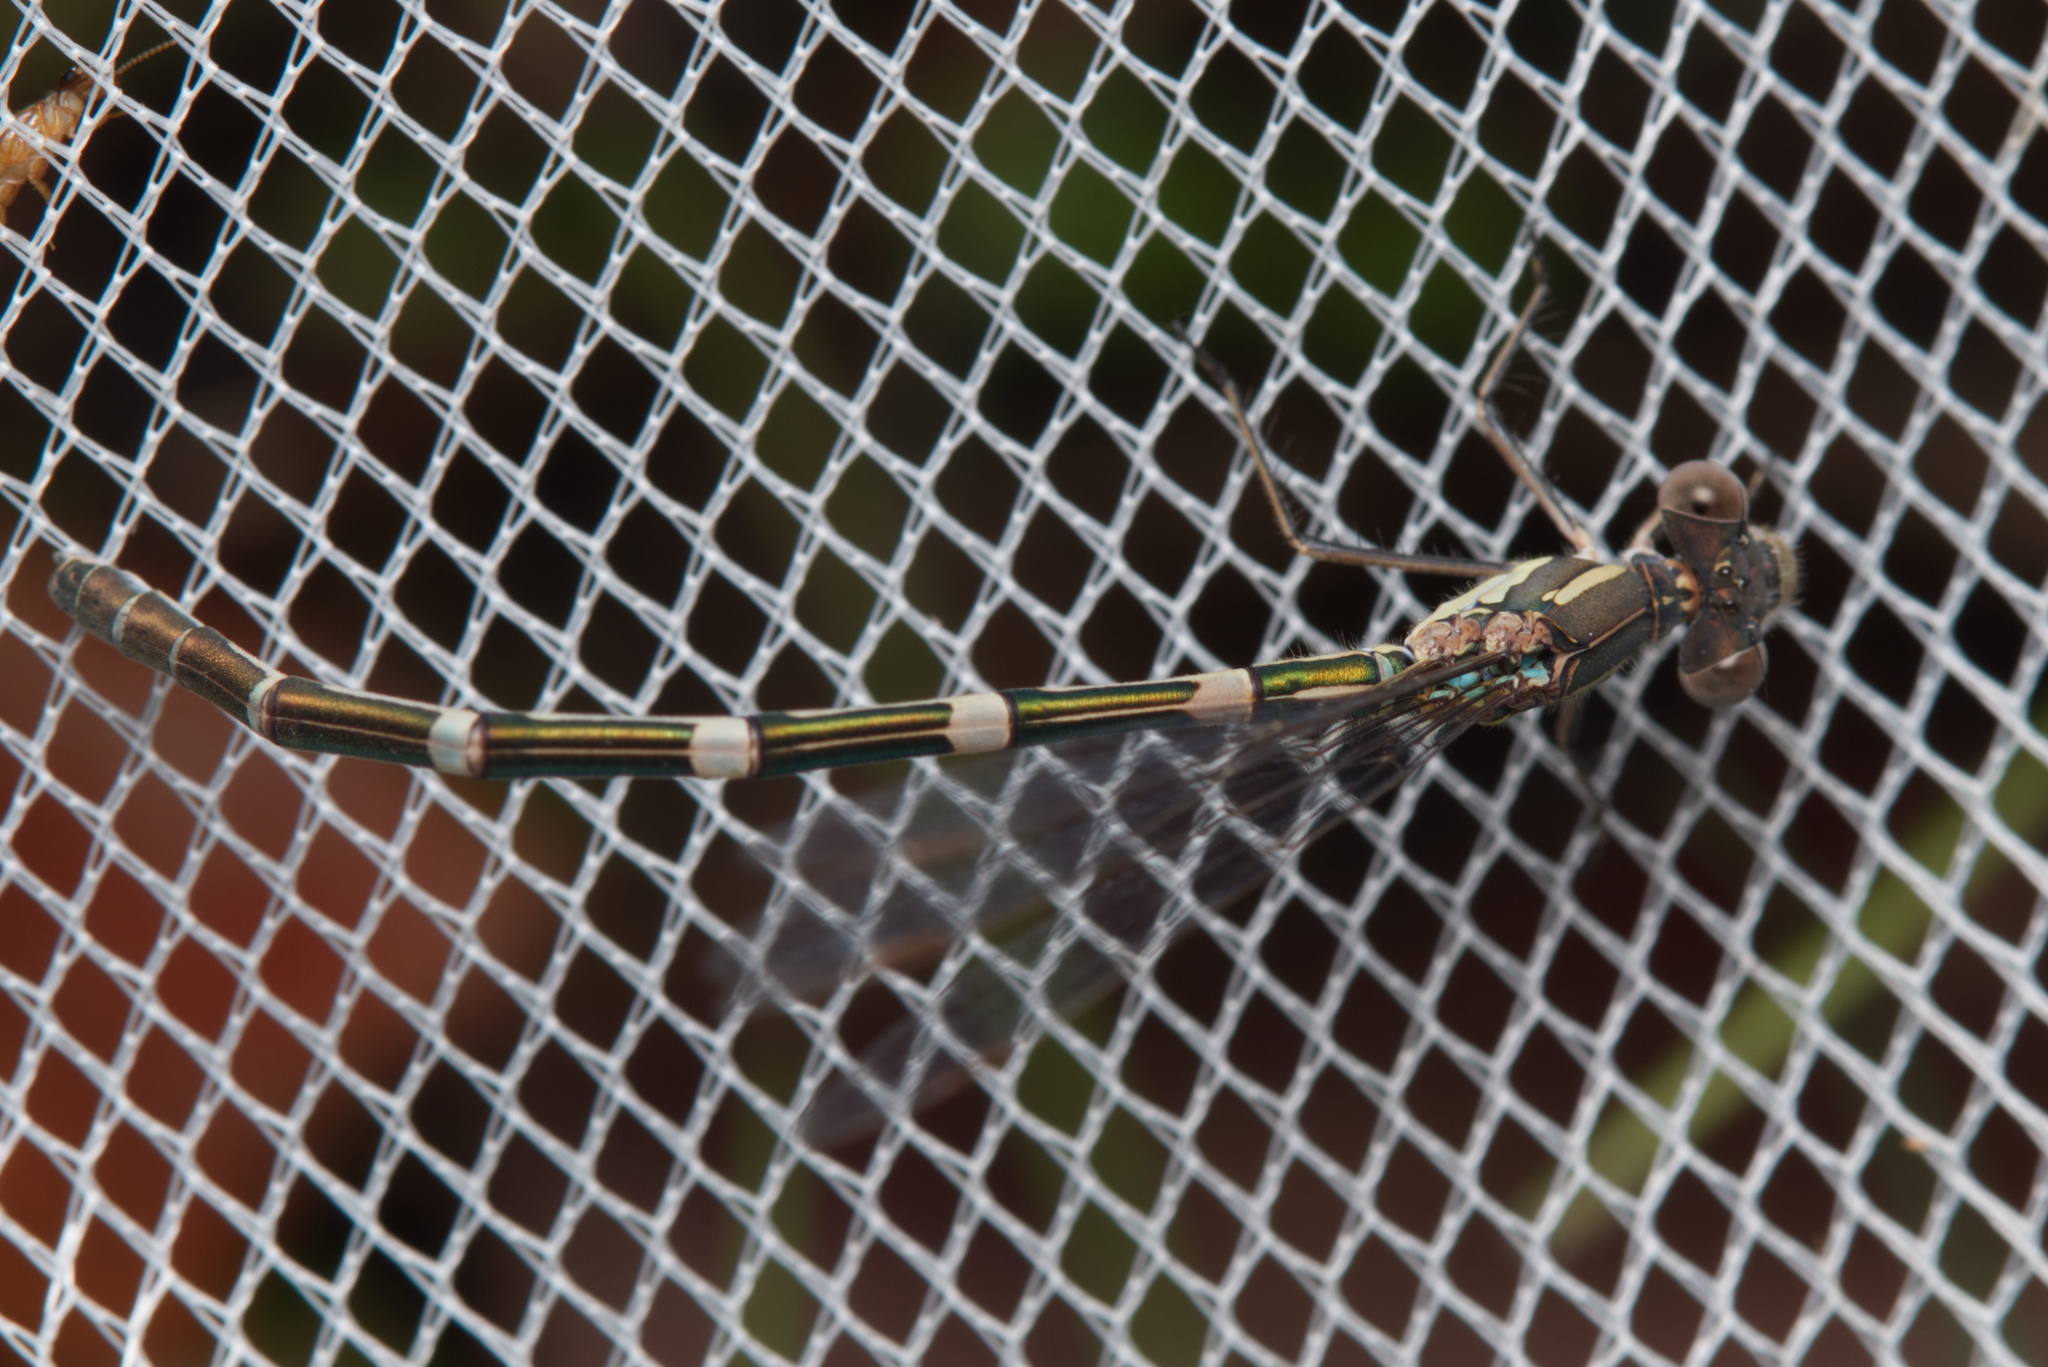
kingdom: Animalia
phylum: Arthropoda
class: Insecta
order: Odonata
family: Lestidae
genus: Austrolestes
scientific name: Austrolestes leda
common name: Wandering ringtail
